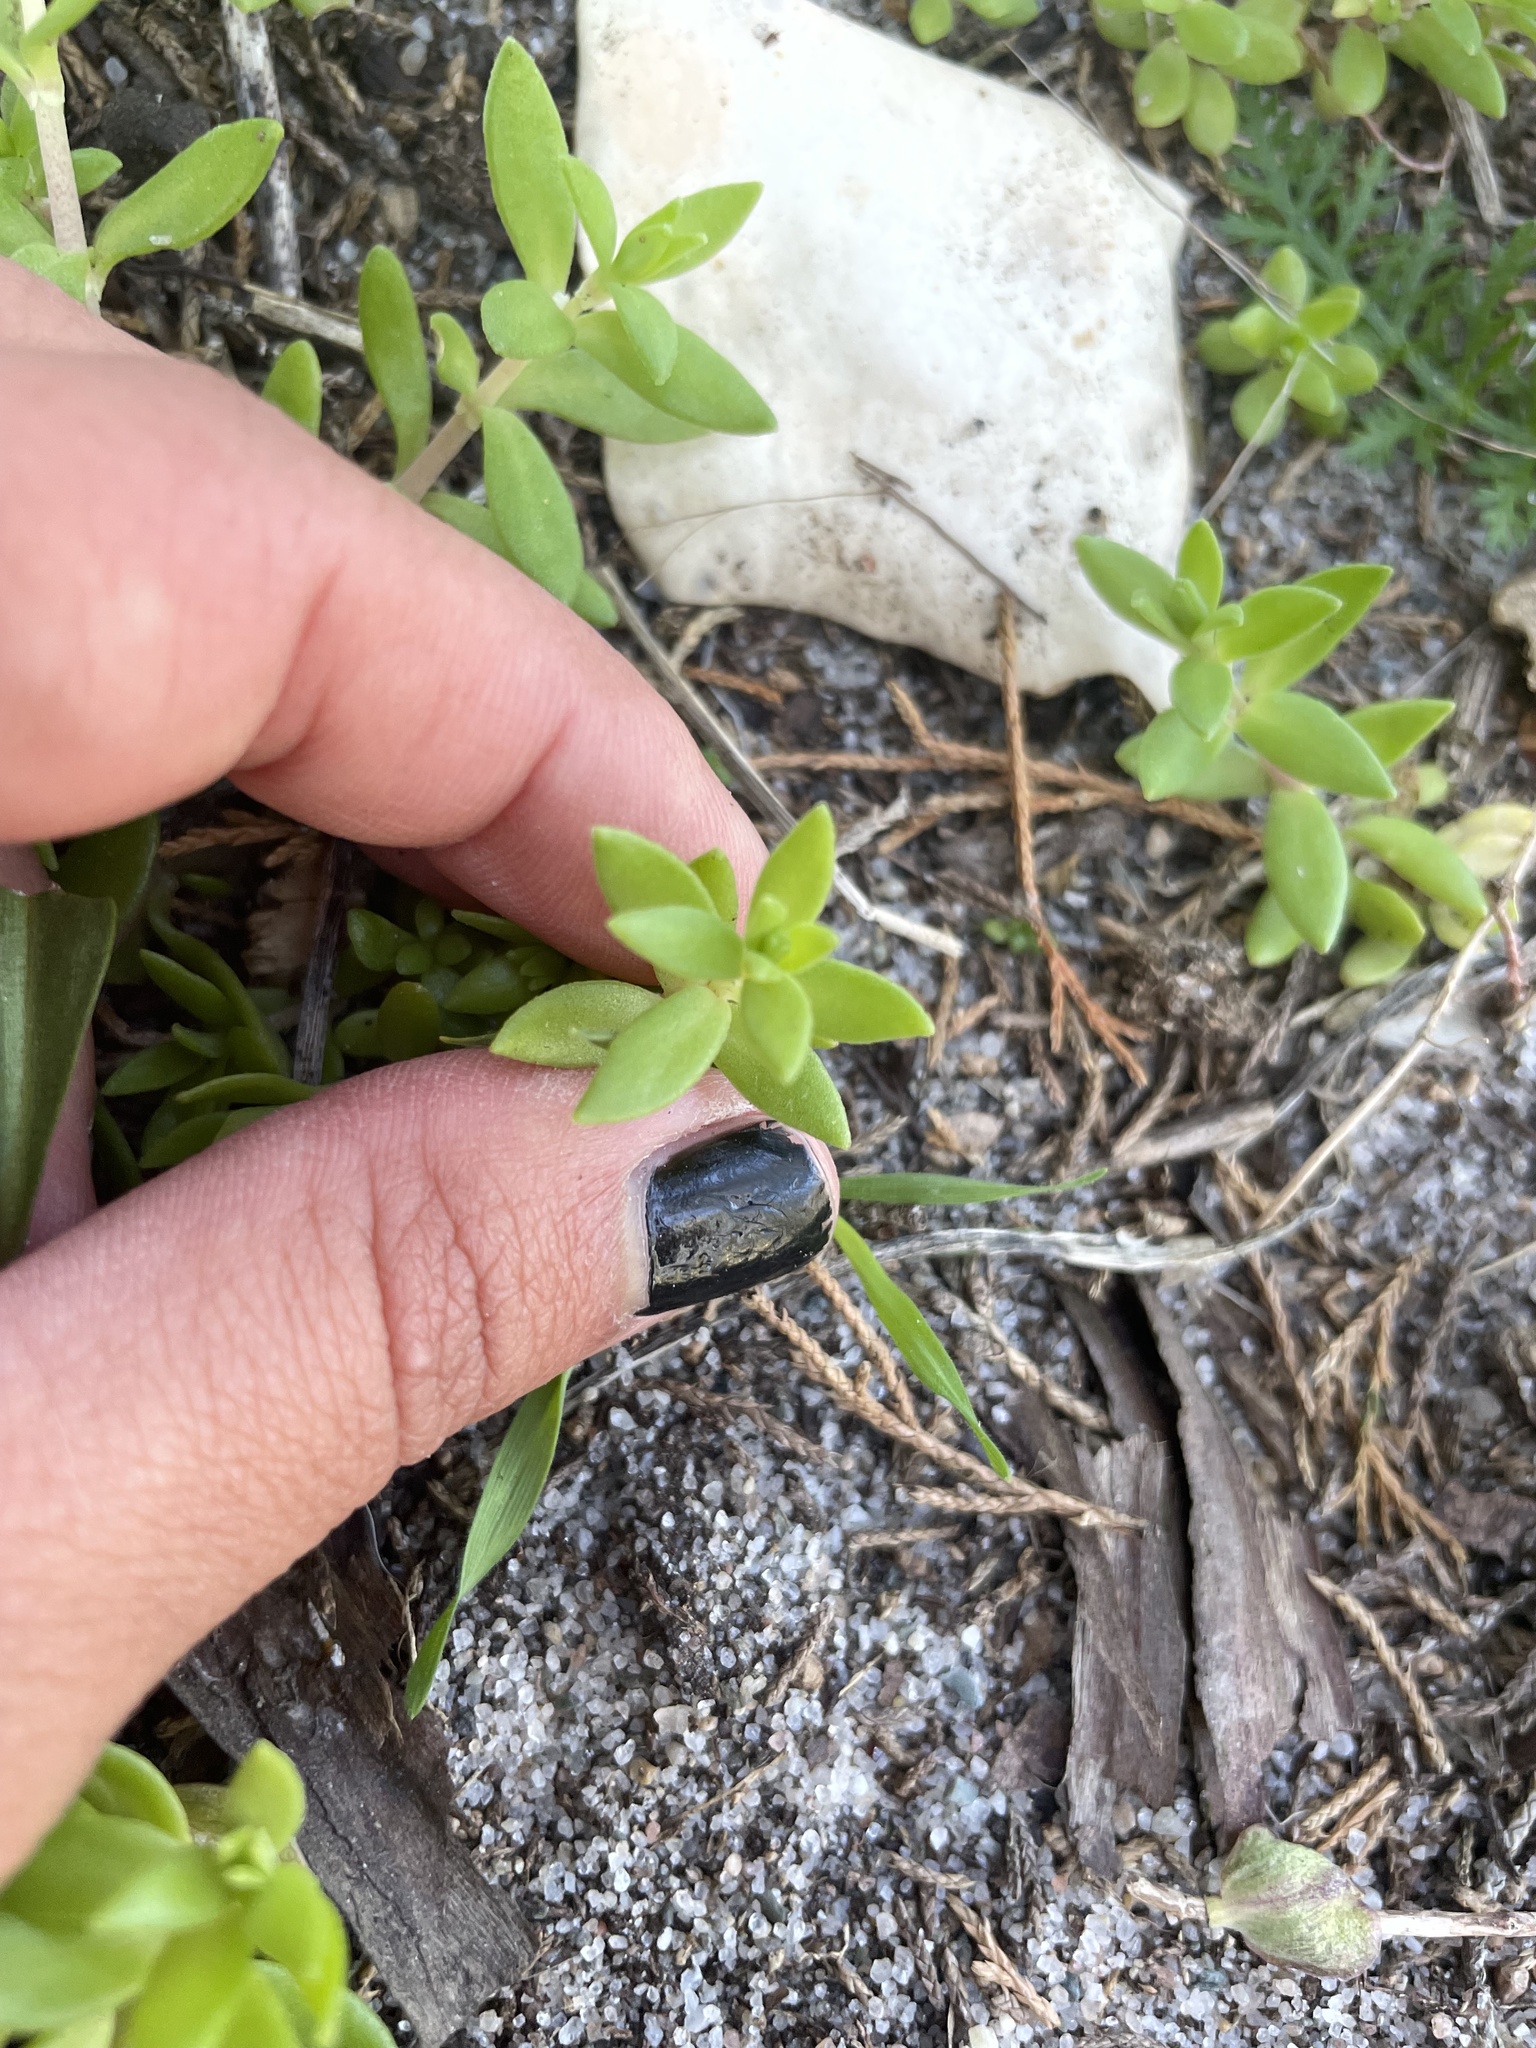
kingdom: Plantae
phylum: Tracheophyta
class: Magnoliopsida
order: Saxifragales
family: Crassulaceae
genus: Sedum
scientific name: Sedum sarmentosum
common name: Stringy stonecrop
